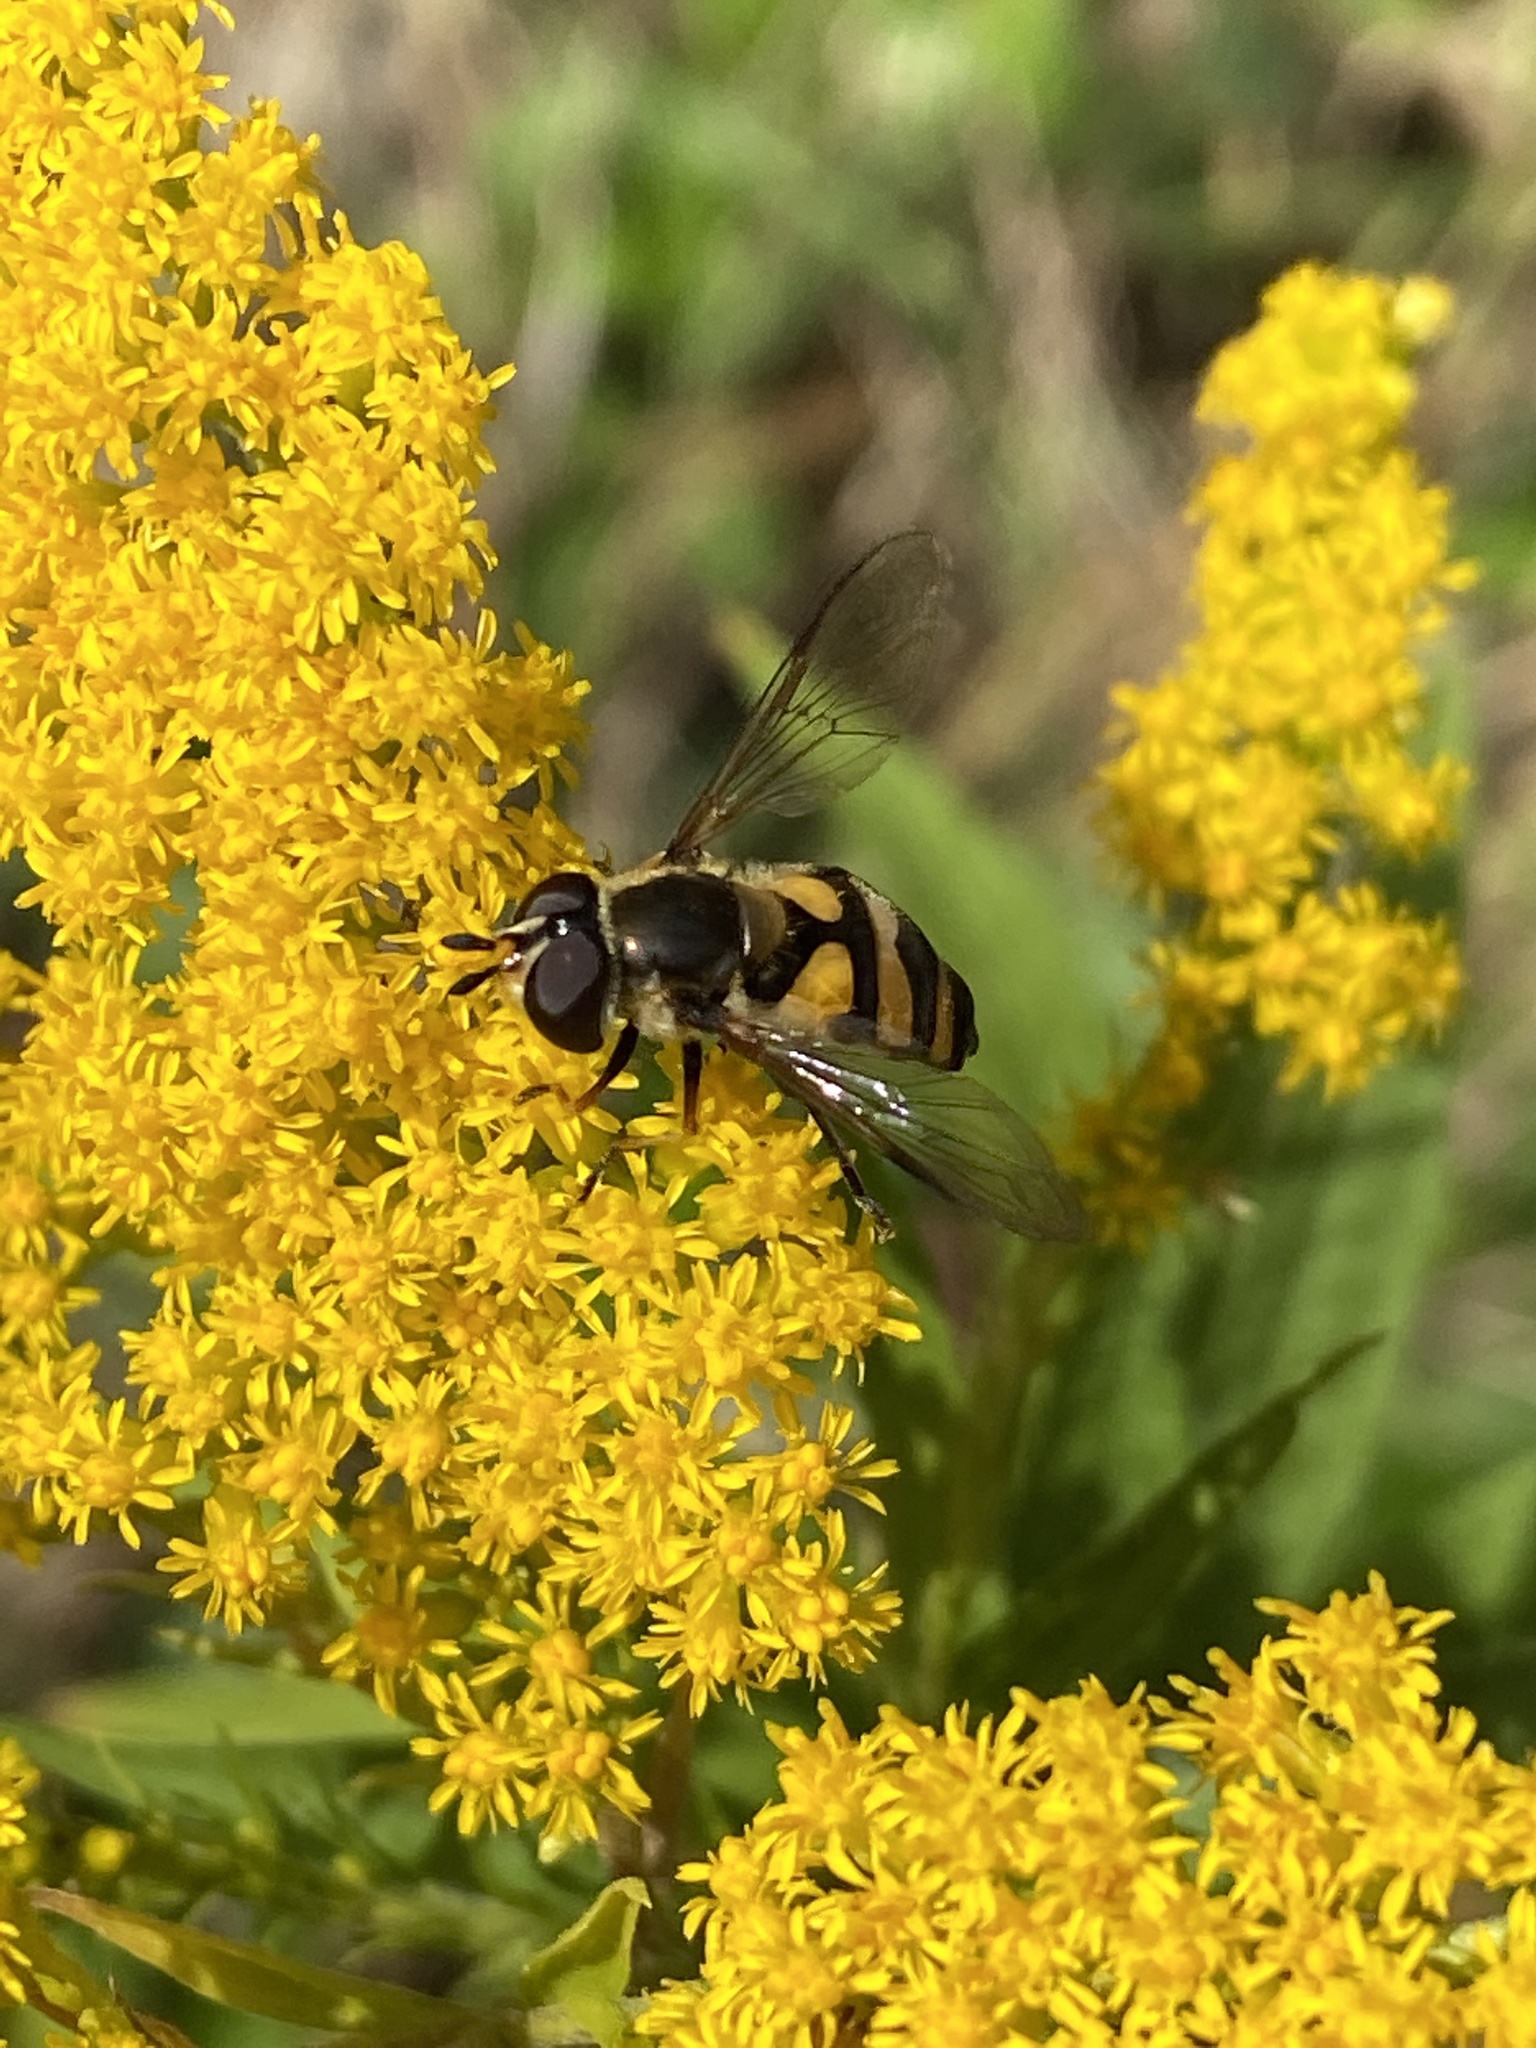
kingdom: Animalia
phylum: Arthropoda
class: Insecta
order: Diptera
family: Syrphidae
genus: Didea
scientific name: Didea fasciata
